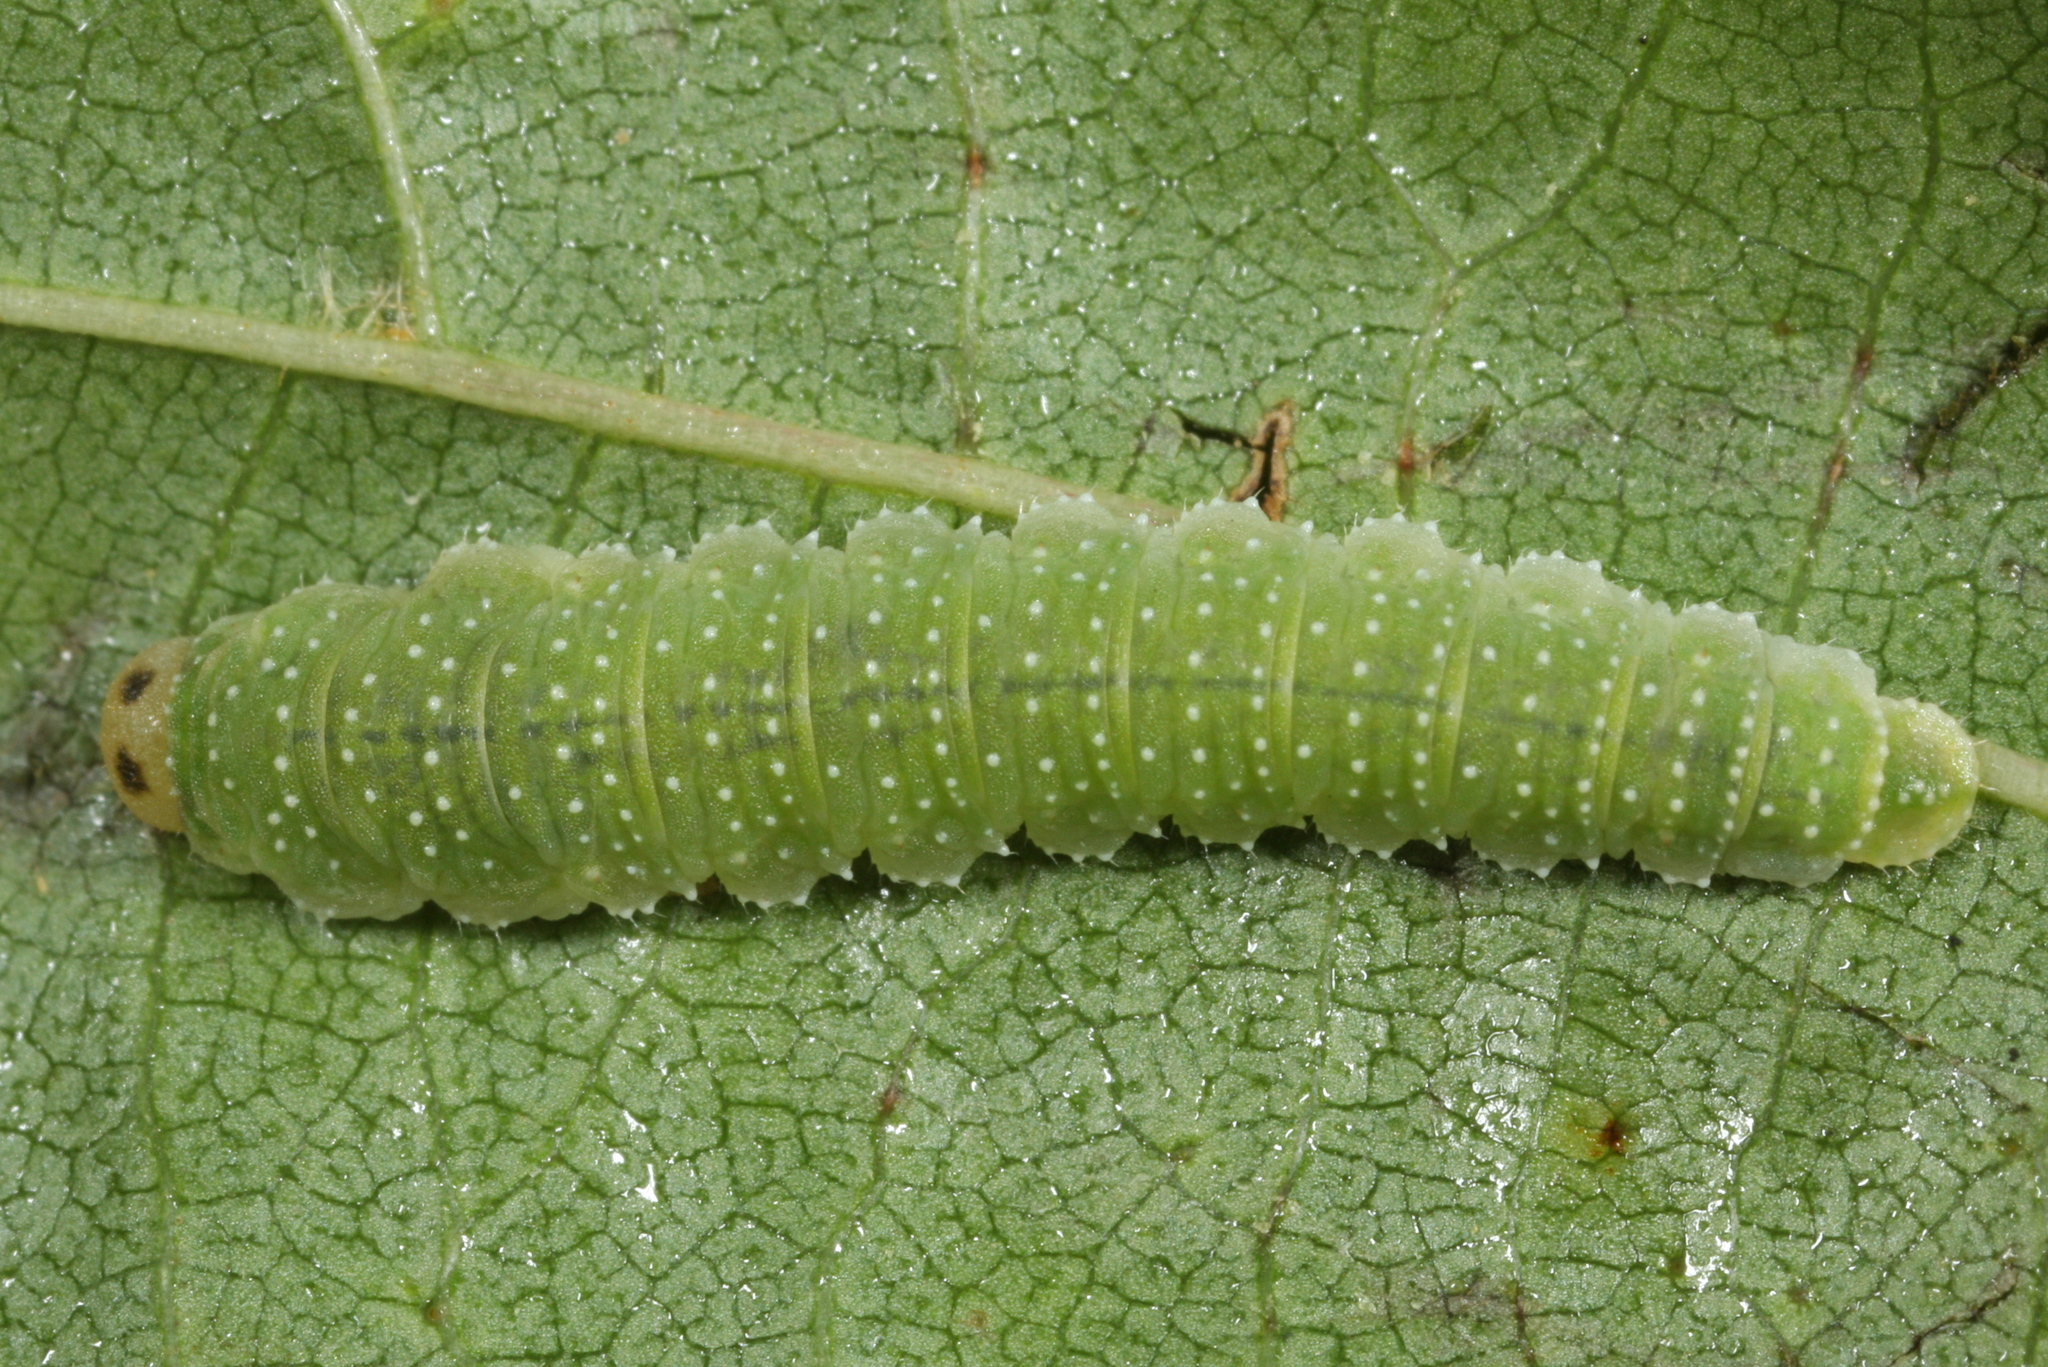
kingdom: Animalia
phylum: Arthropoda
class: Insecta
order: Hymenoptera
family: Tenthredinidae
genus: Nematinus
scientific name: Nematinus steini
